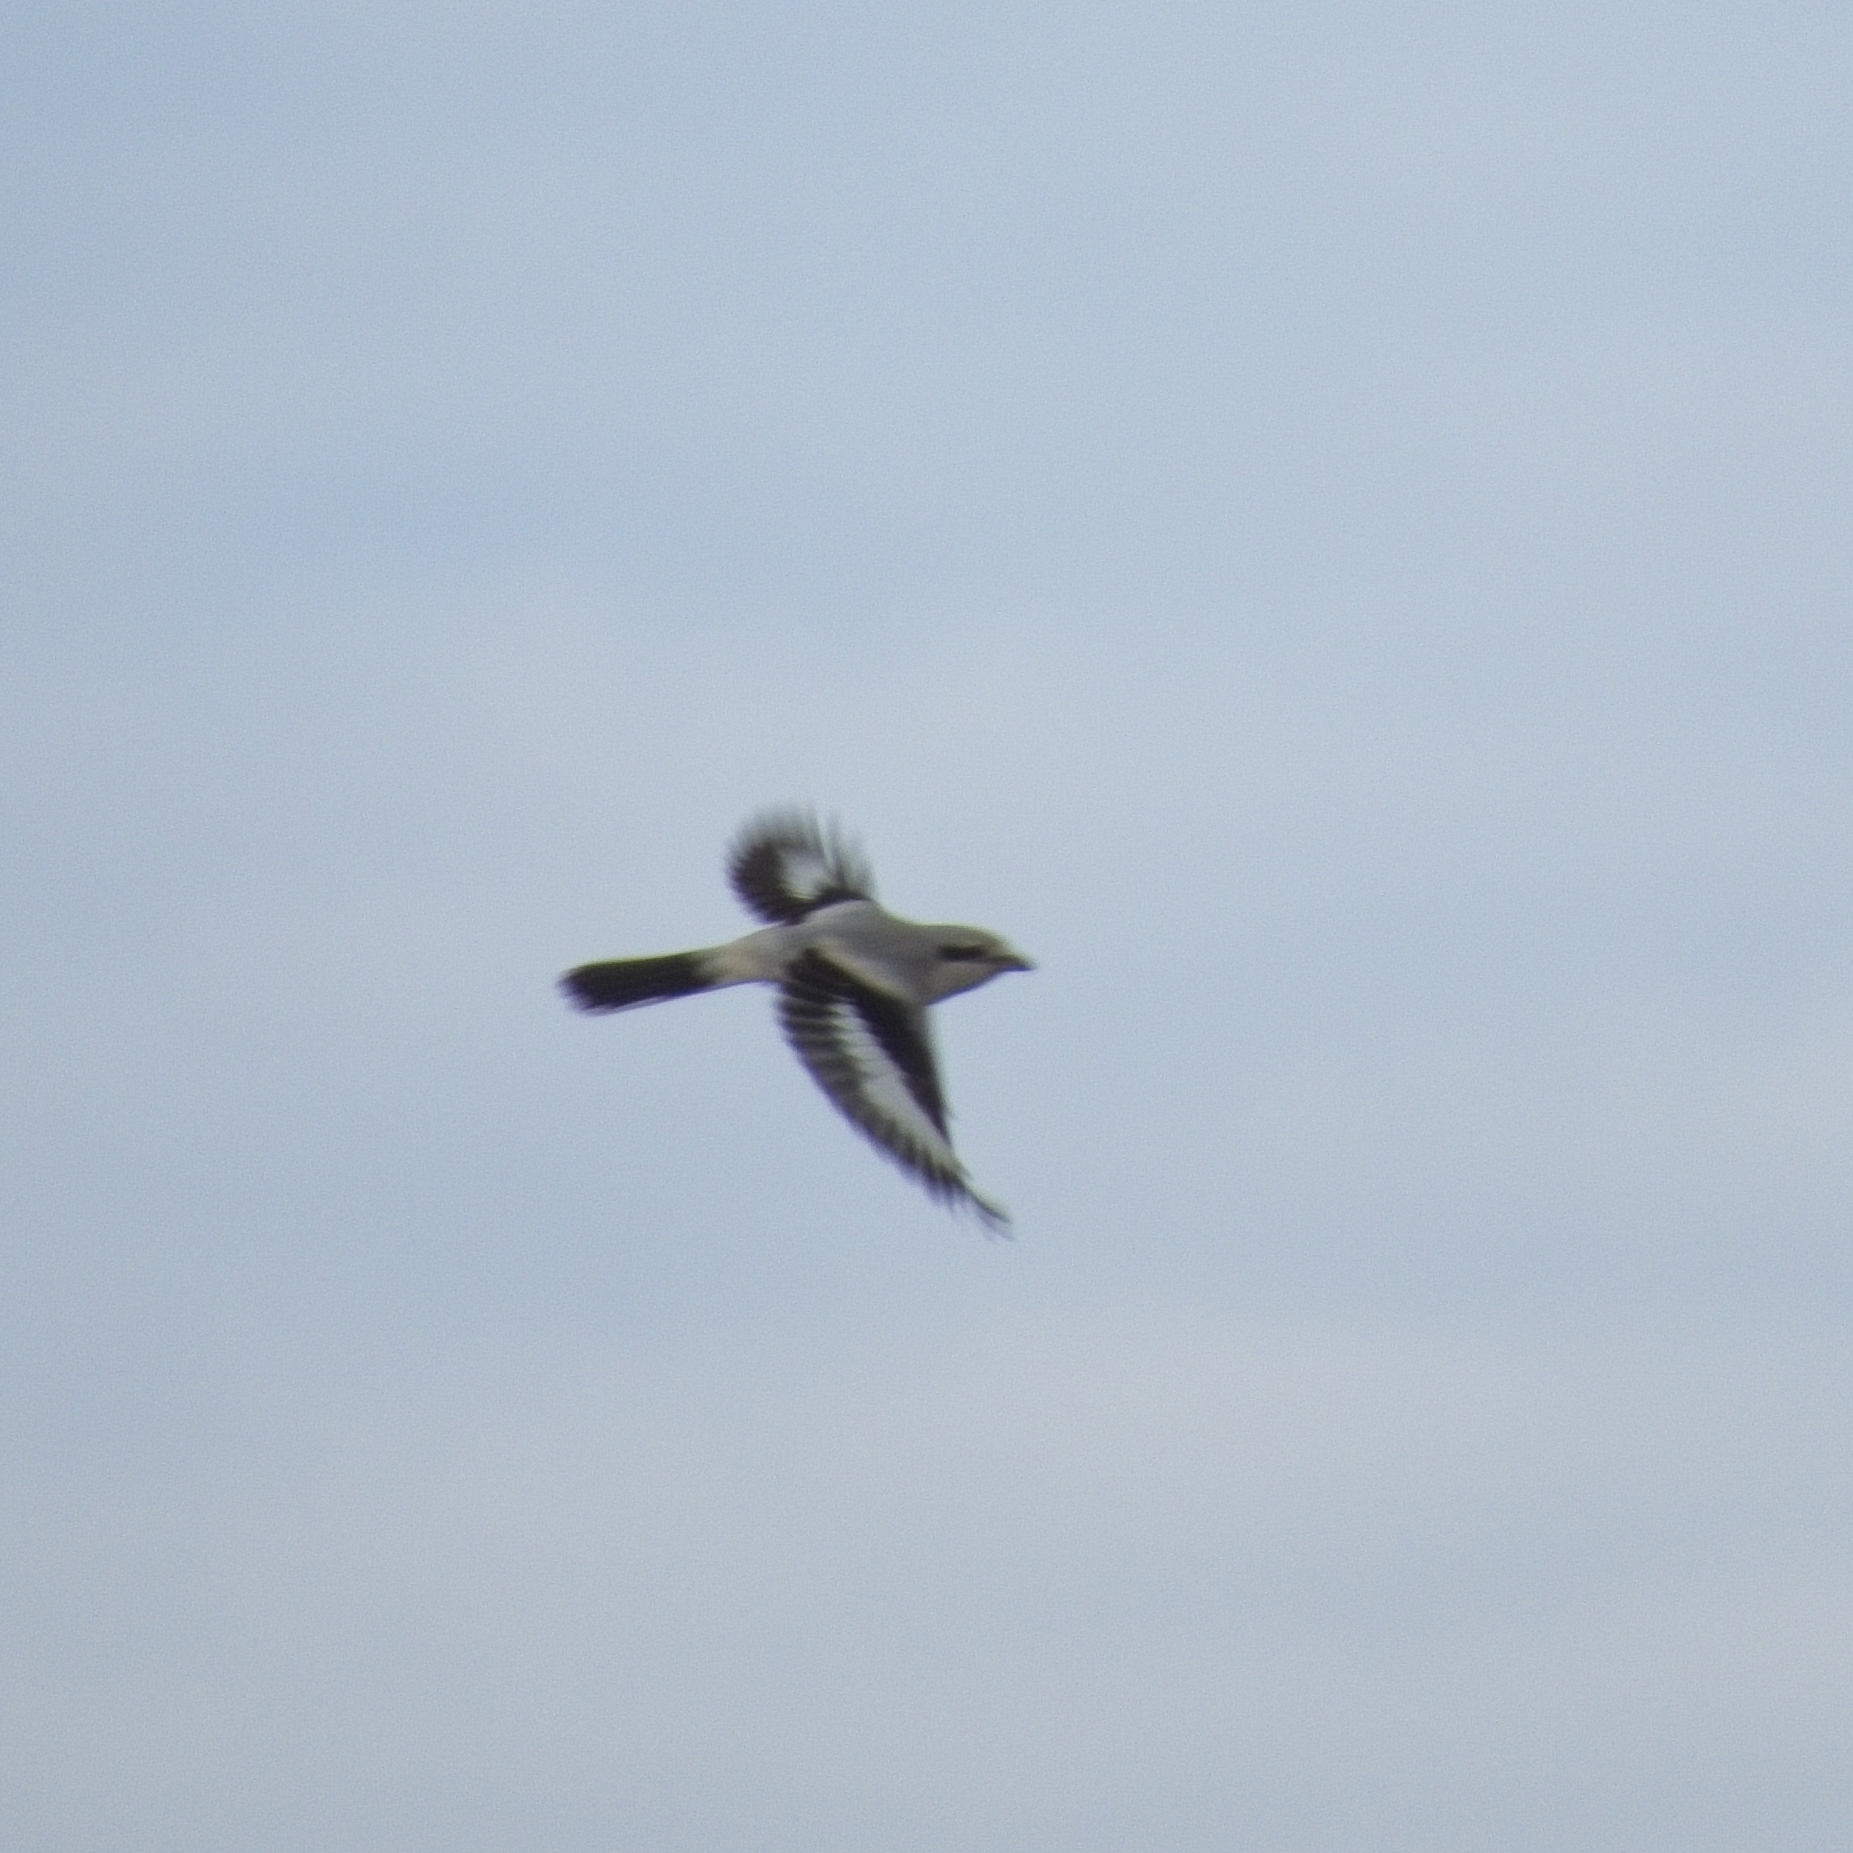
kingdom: Animalia
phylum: Chordata
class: Aves
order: Passeriformes
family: Laniidae
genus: Lanius
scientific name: Lanius excubitor
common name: Great grey shrike
